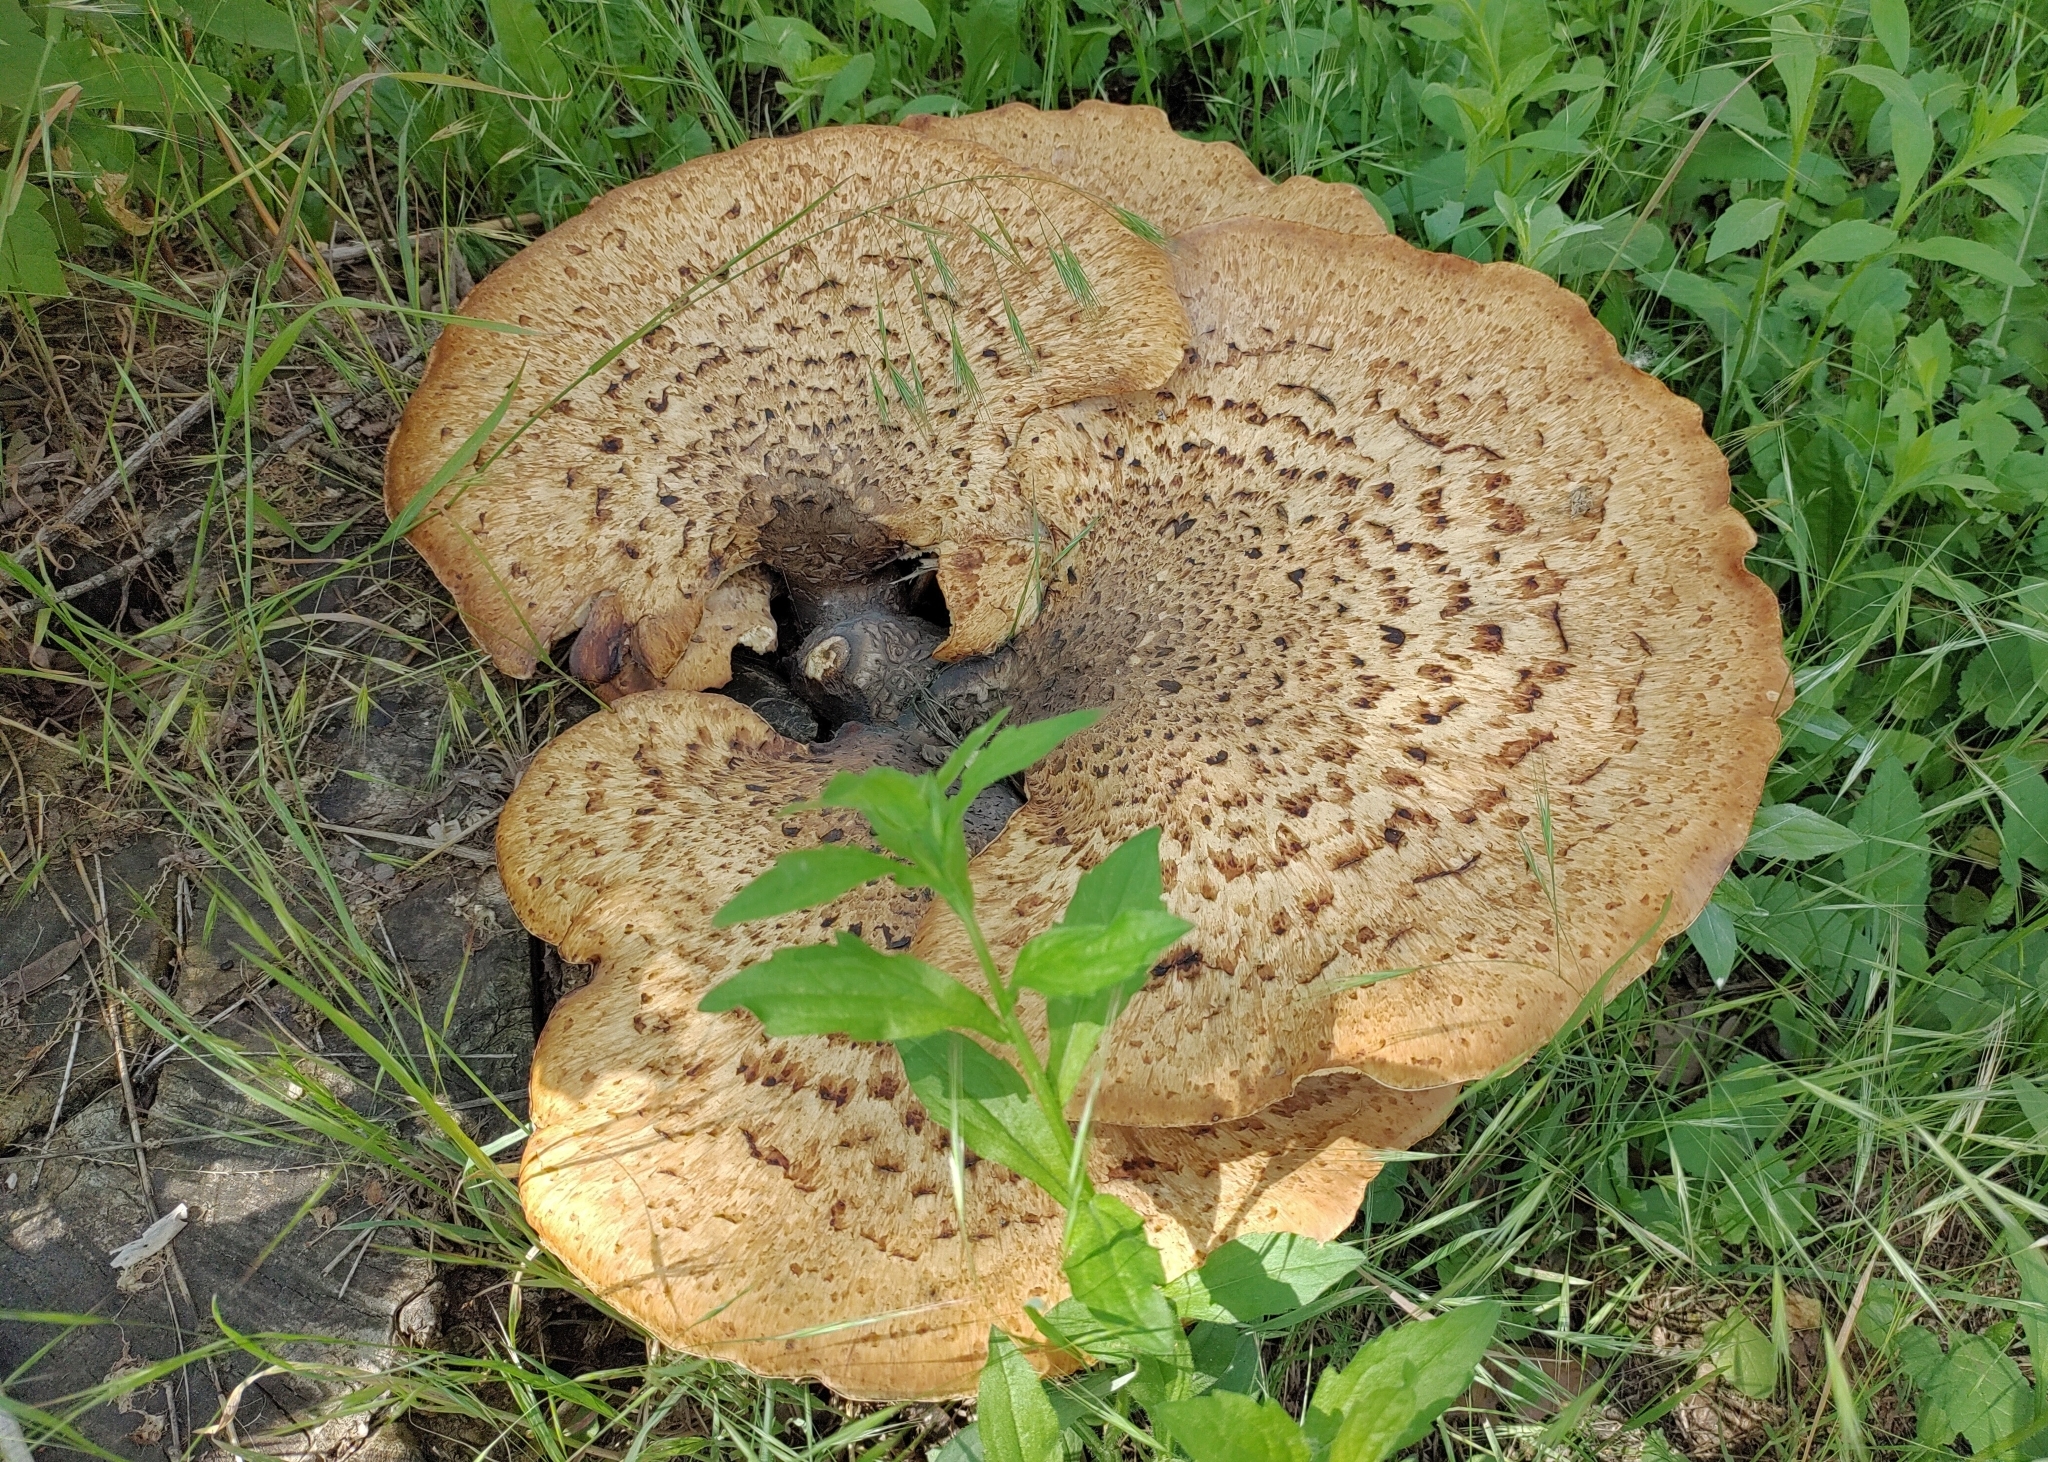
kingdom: Fungi
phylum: Basidiomycota
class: Agaricomycetes
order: Polyporales
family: Polyporaceae
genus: Cerioporus
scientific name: Cerioporus squamosus
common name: Dryad's saddle
